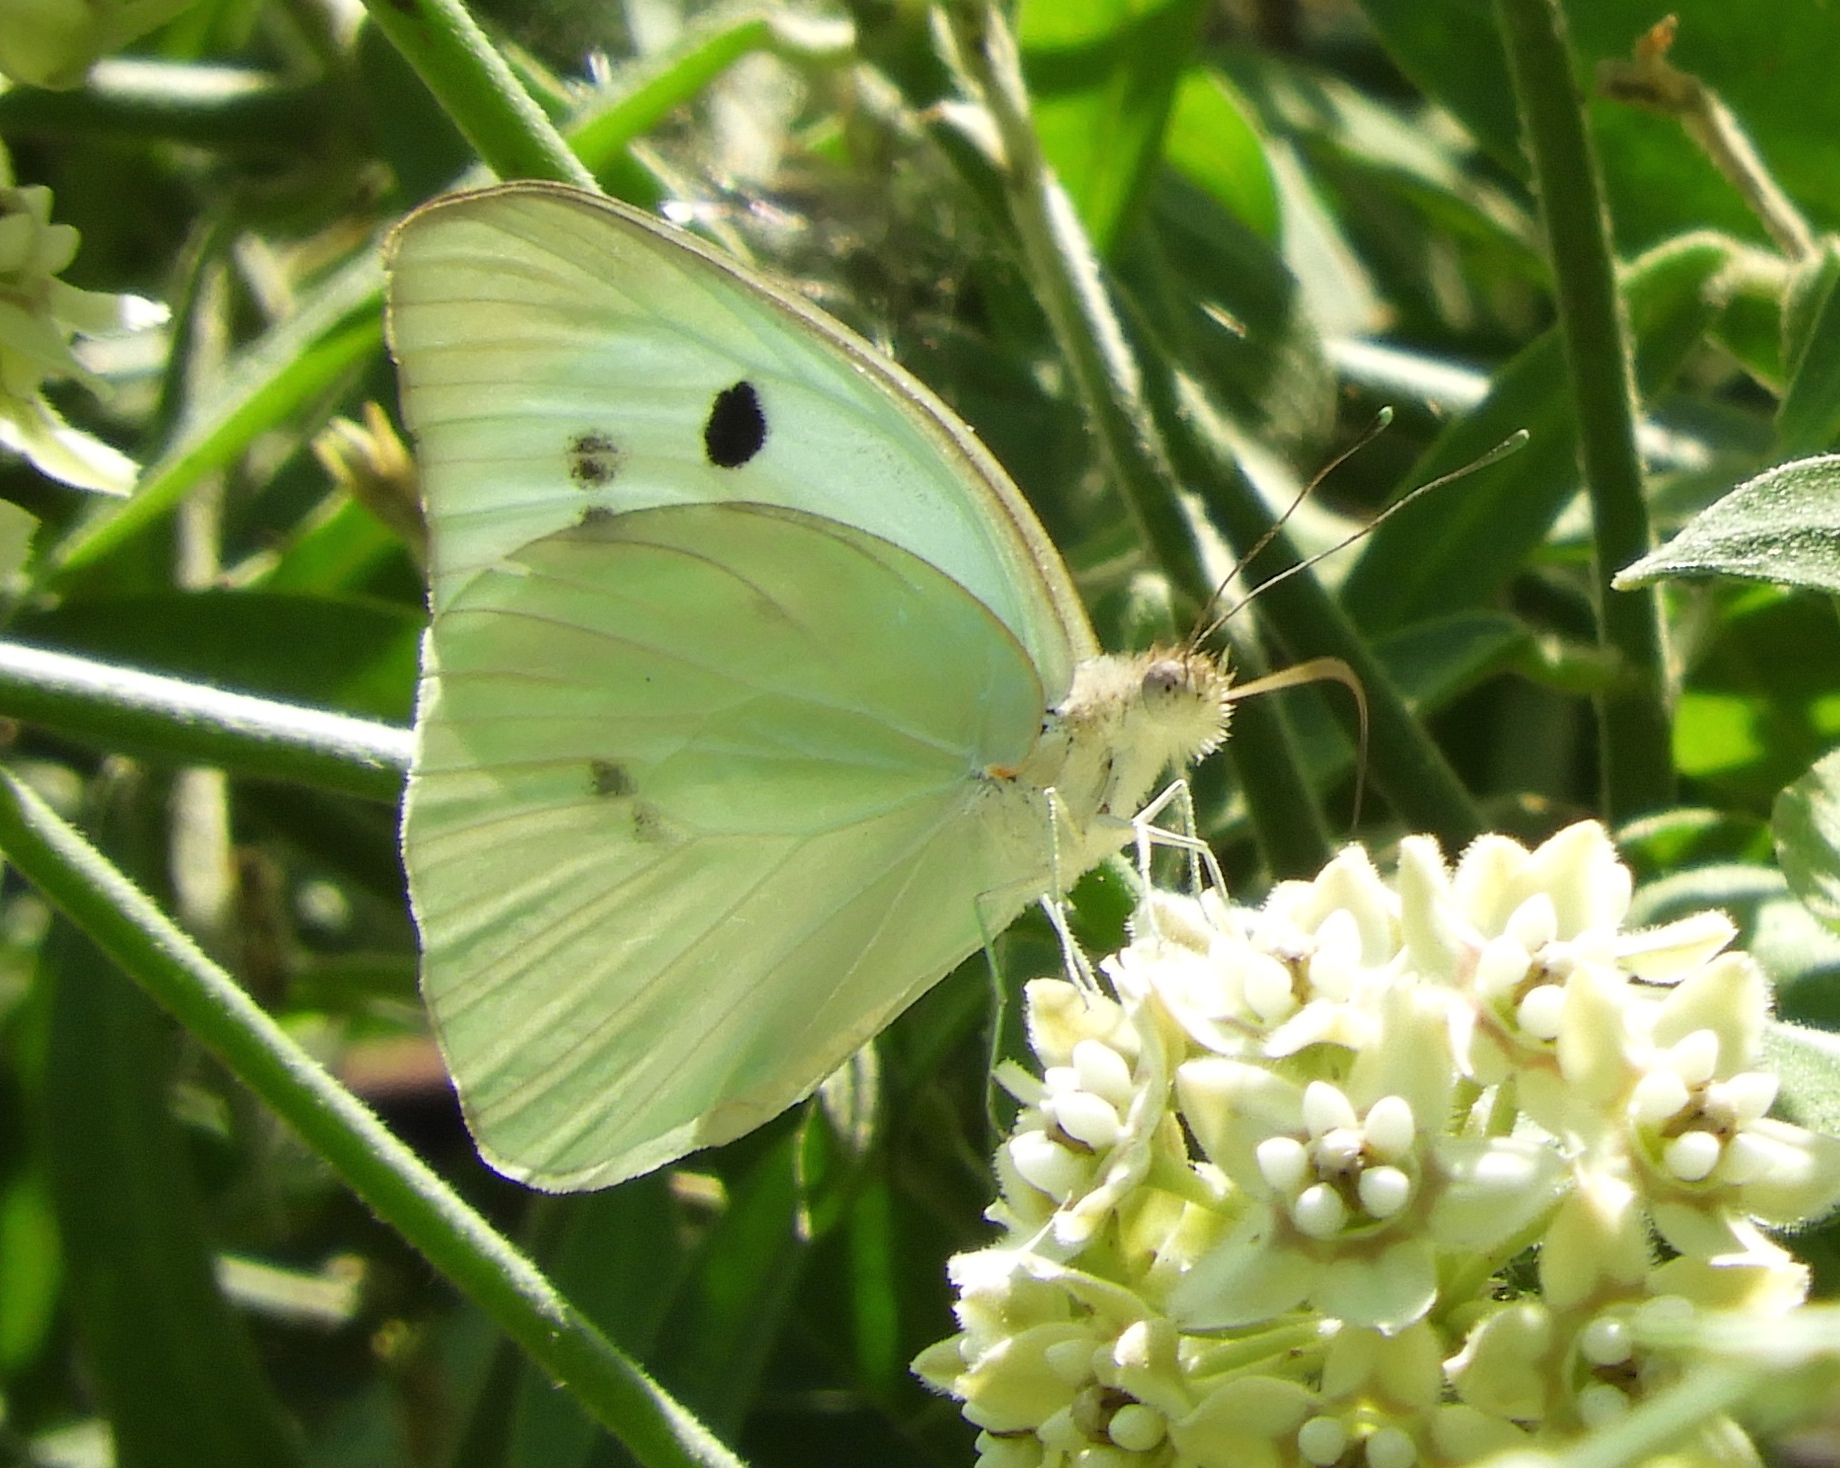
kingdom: Animalia
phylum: Arthropoda
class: Insecta
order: Lepidoptera
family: Pieridae
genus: Ganyra
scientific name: Ganyra josephina
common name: Giant white
